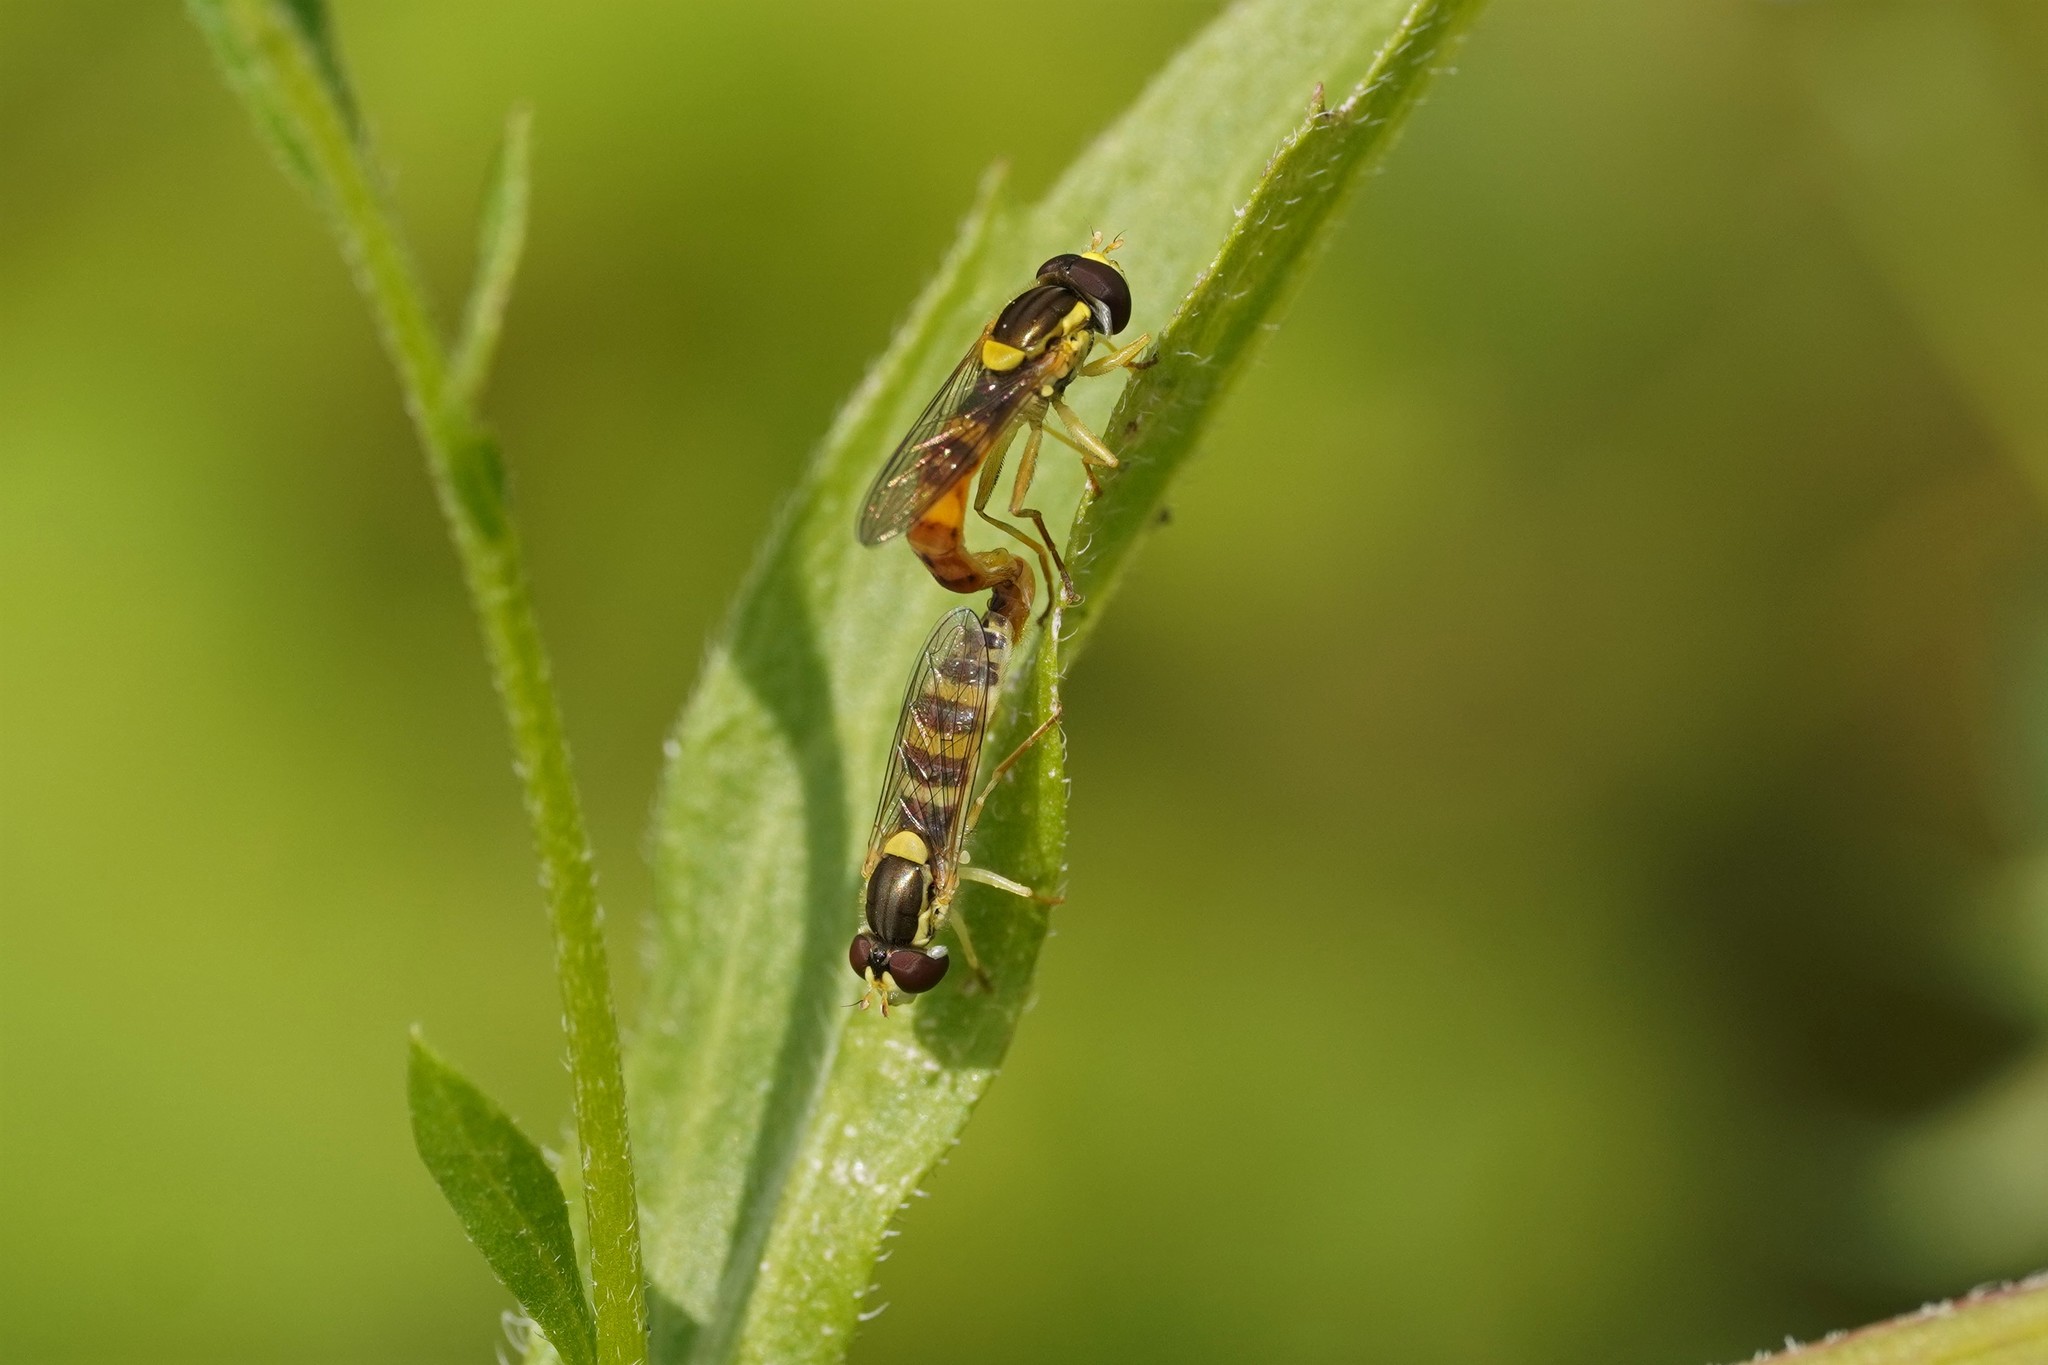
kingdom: Animalia
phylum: Arthropoda
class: Insecta
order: Diptera
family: Syrphidae
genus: Sphaerophoria
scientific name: Sphaerophoria scripta
